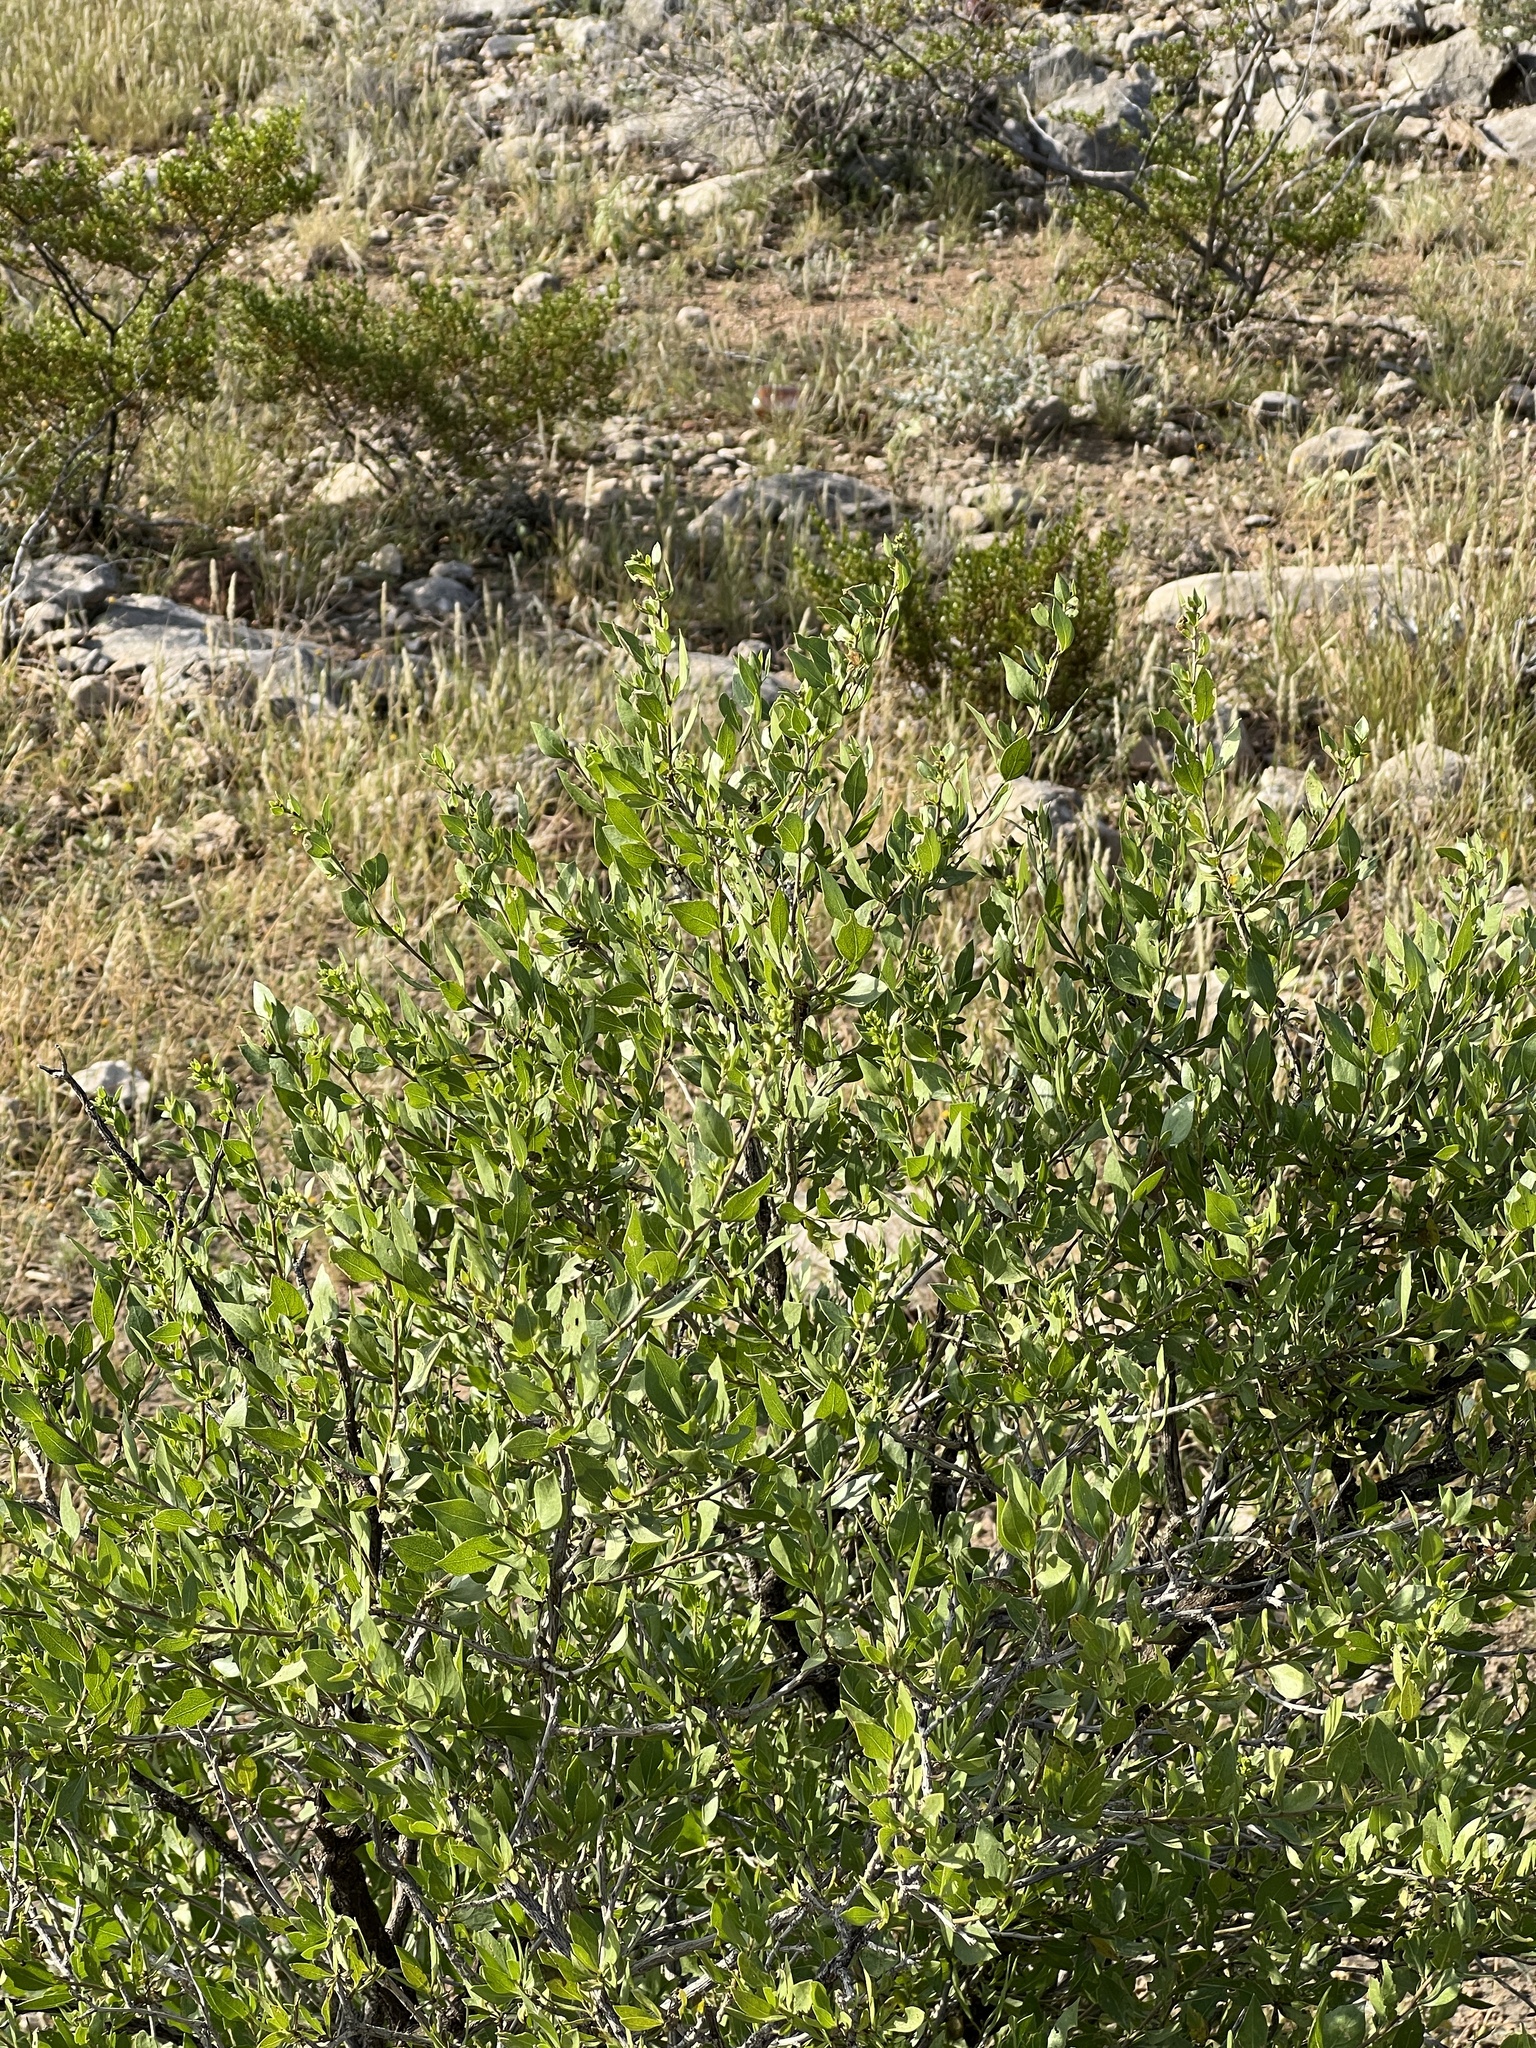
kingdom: Plantae
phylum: Tracheophyta
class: Magnoliopsida
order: Asterales
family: Asteraceae
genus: Flourensia
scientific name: Flourensia cernua
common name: Varnishbush
